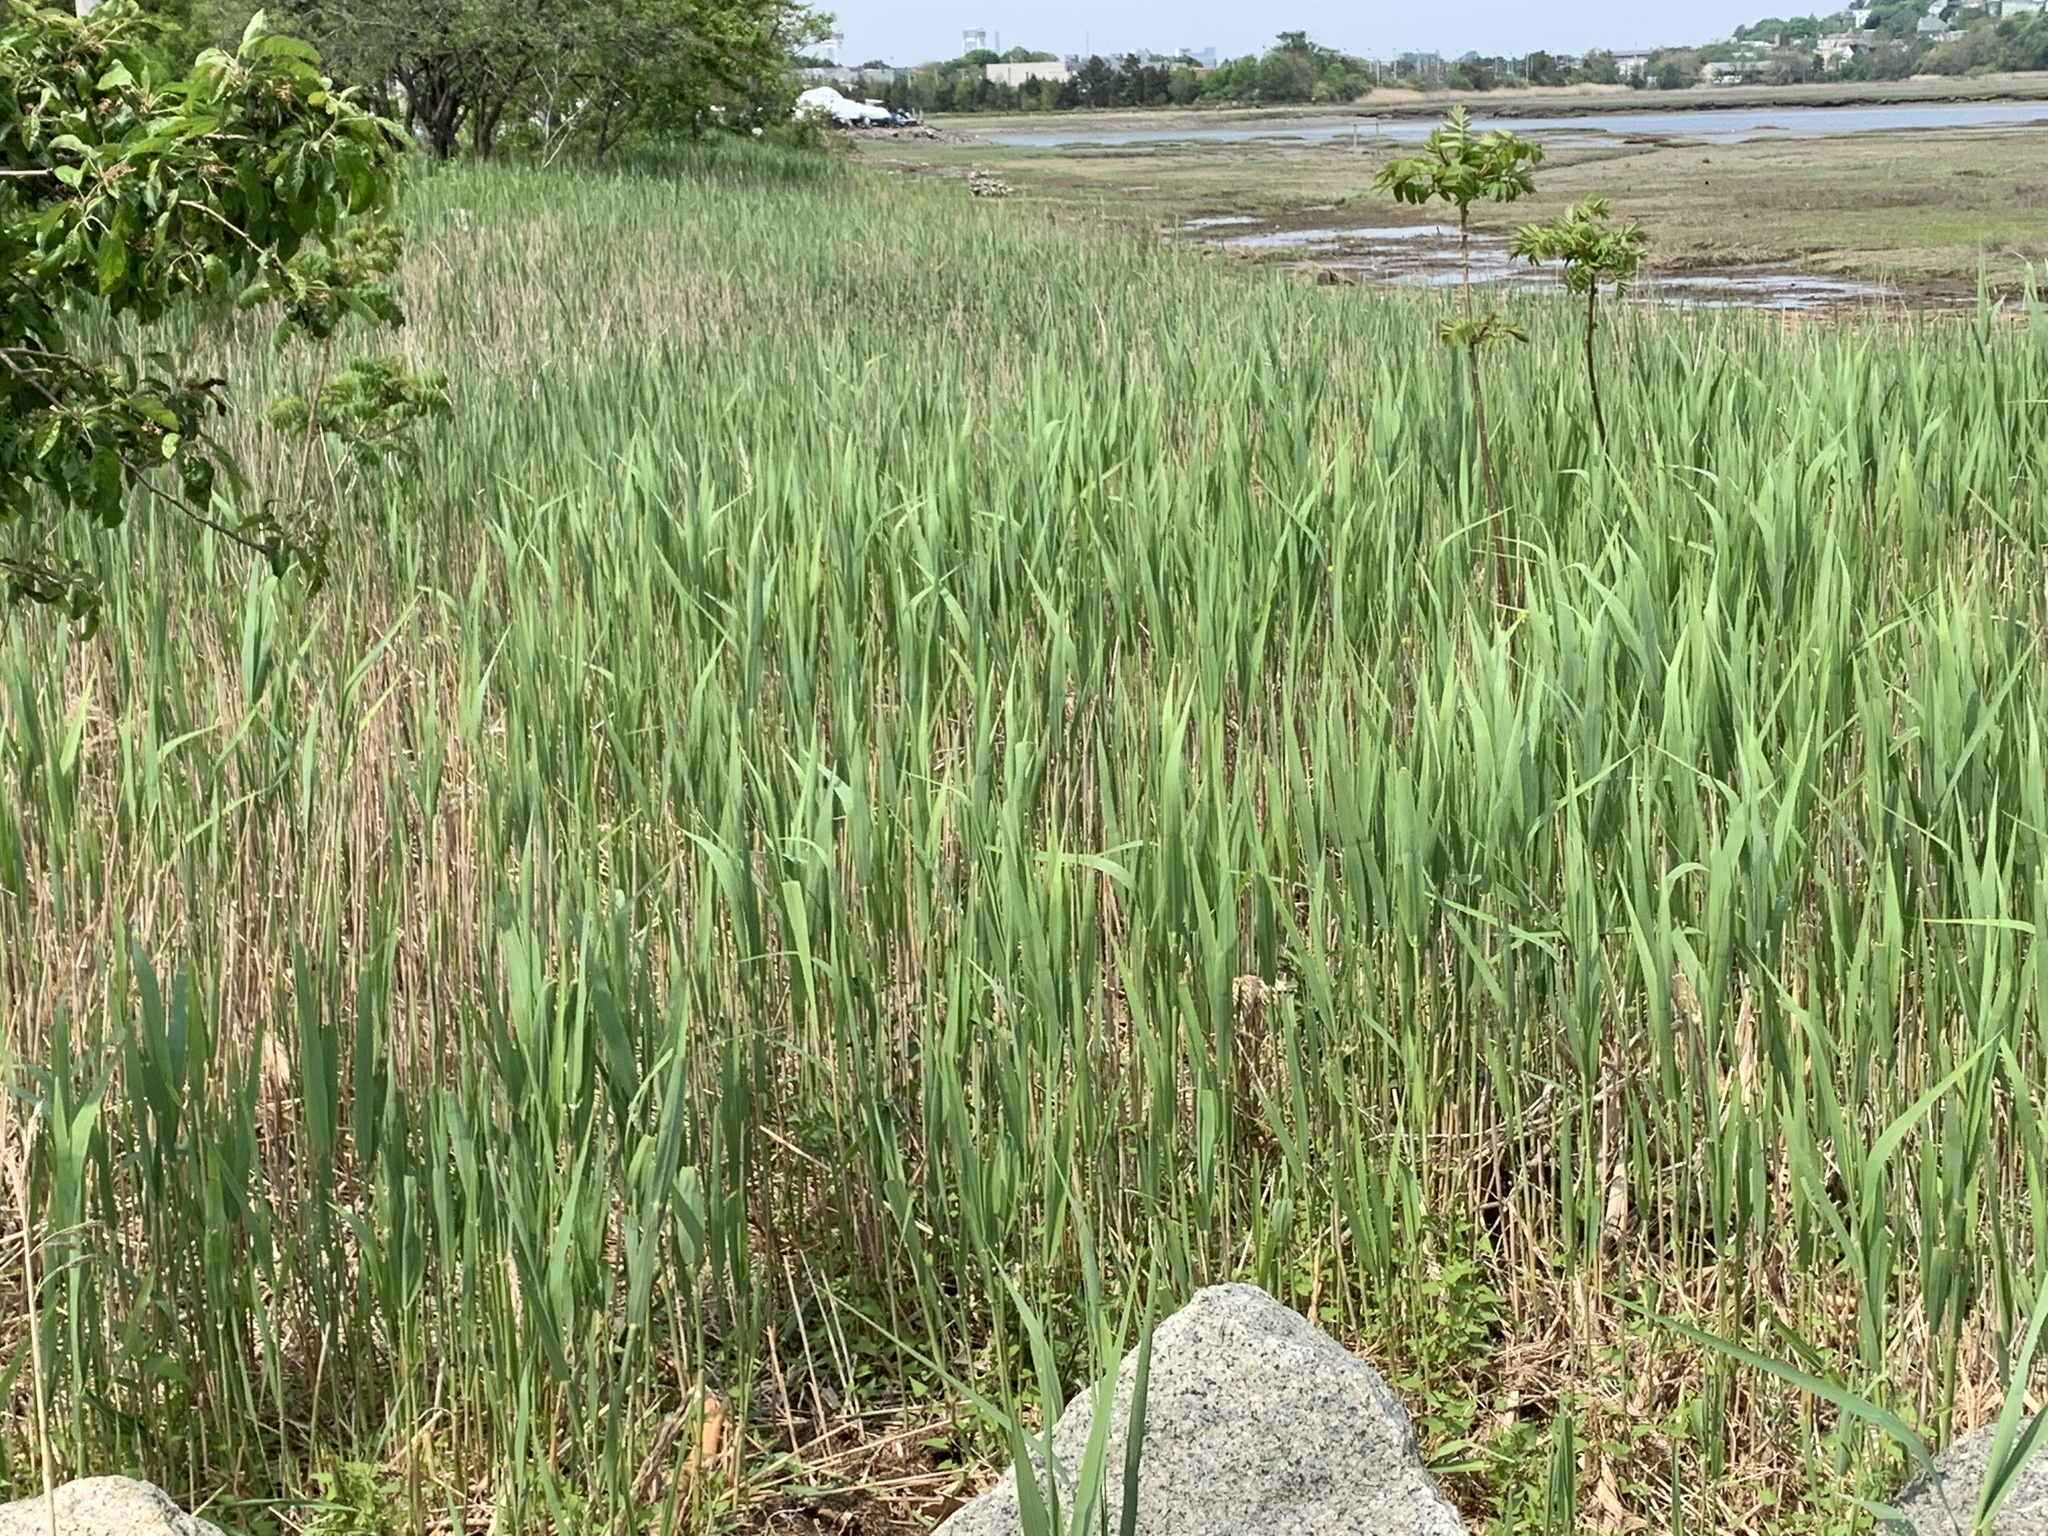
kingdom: Plantae
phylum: Tracheophyta
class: Liliopsida
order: Poales
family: Poaceae
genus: Phragmites
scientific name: Phragmites australis
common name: Common reed
